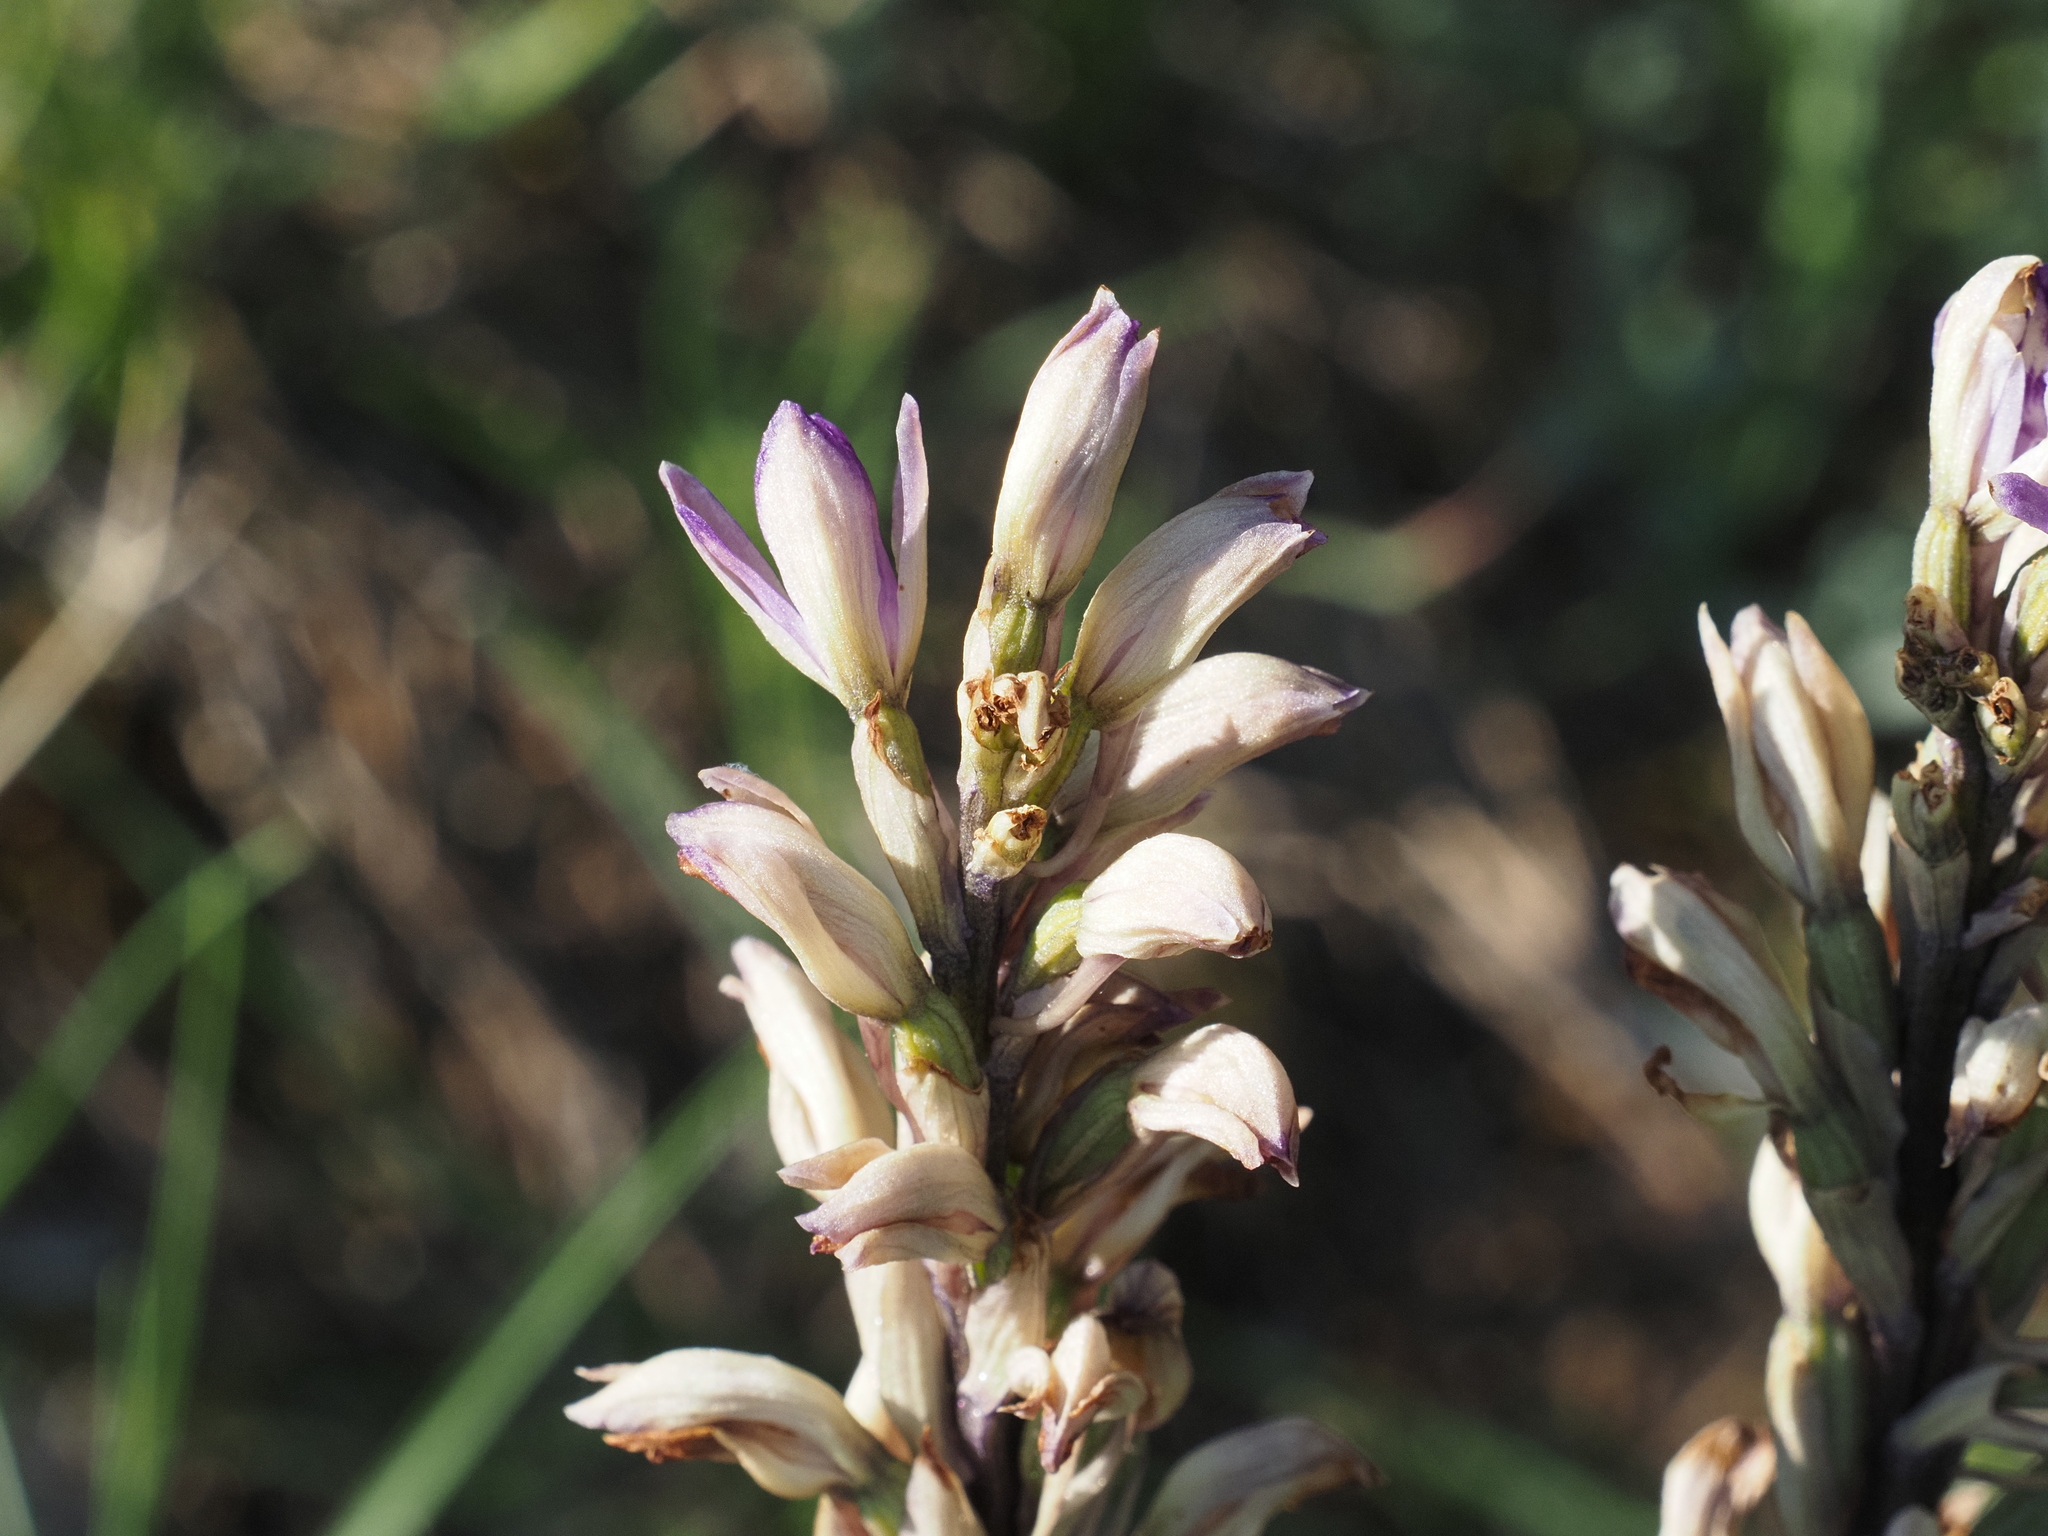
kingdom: Plantae
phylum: Tracheophyta
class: Liliopsida
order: Asparagales
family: Orchidaceae
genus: Limodorum
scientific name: Limodorum abortivum
